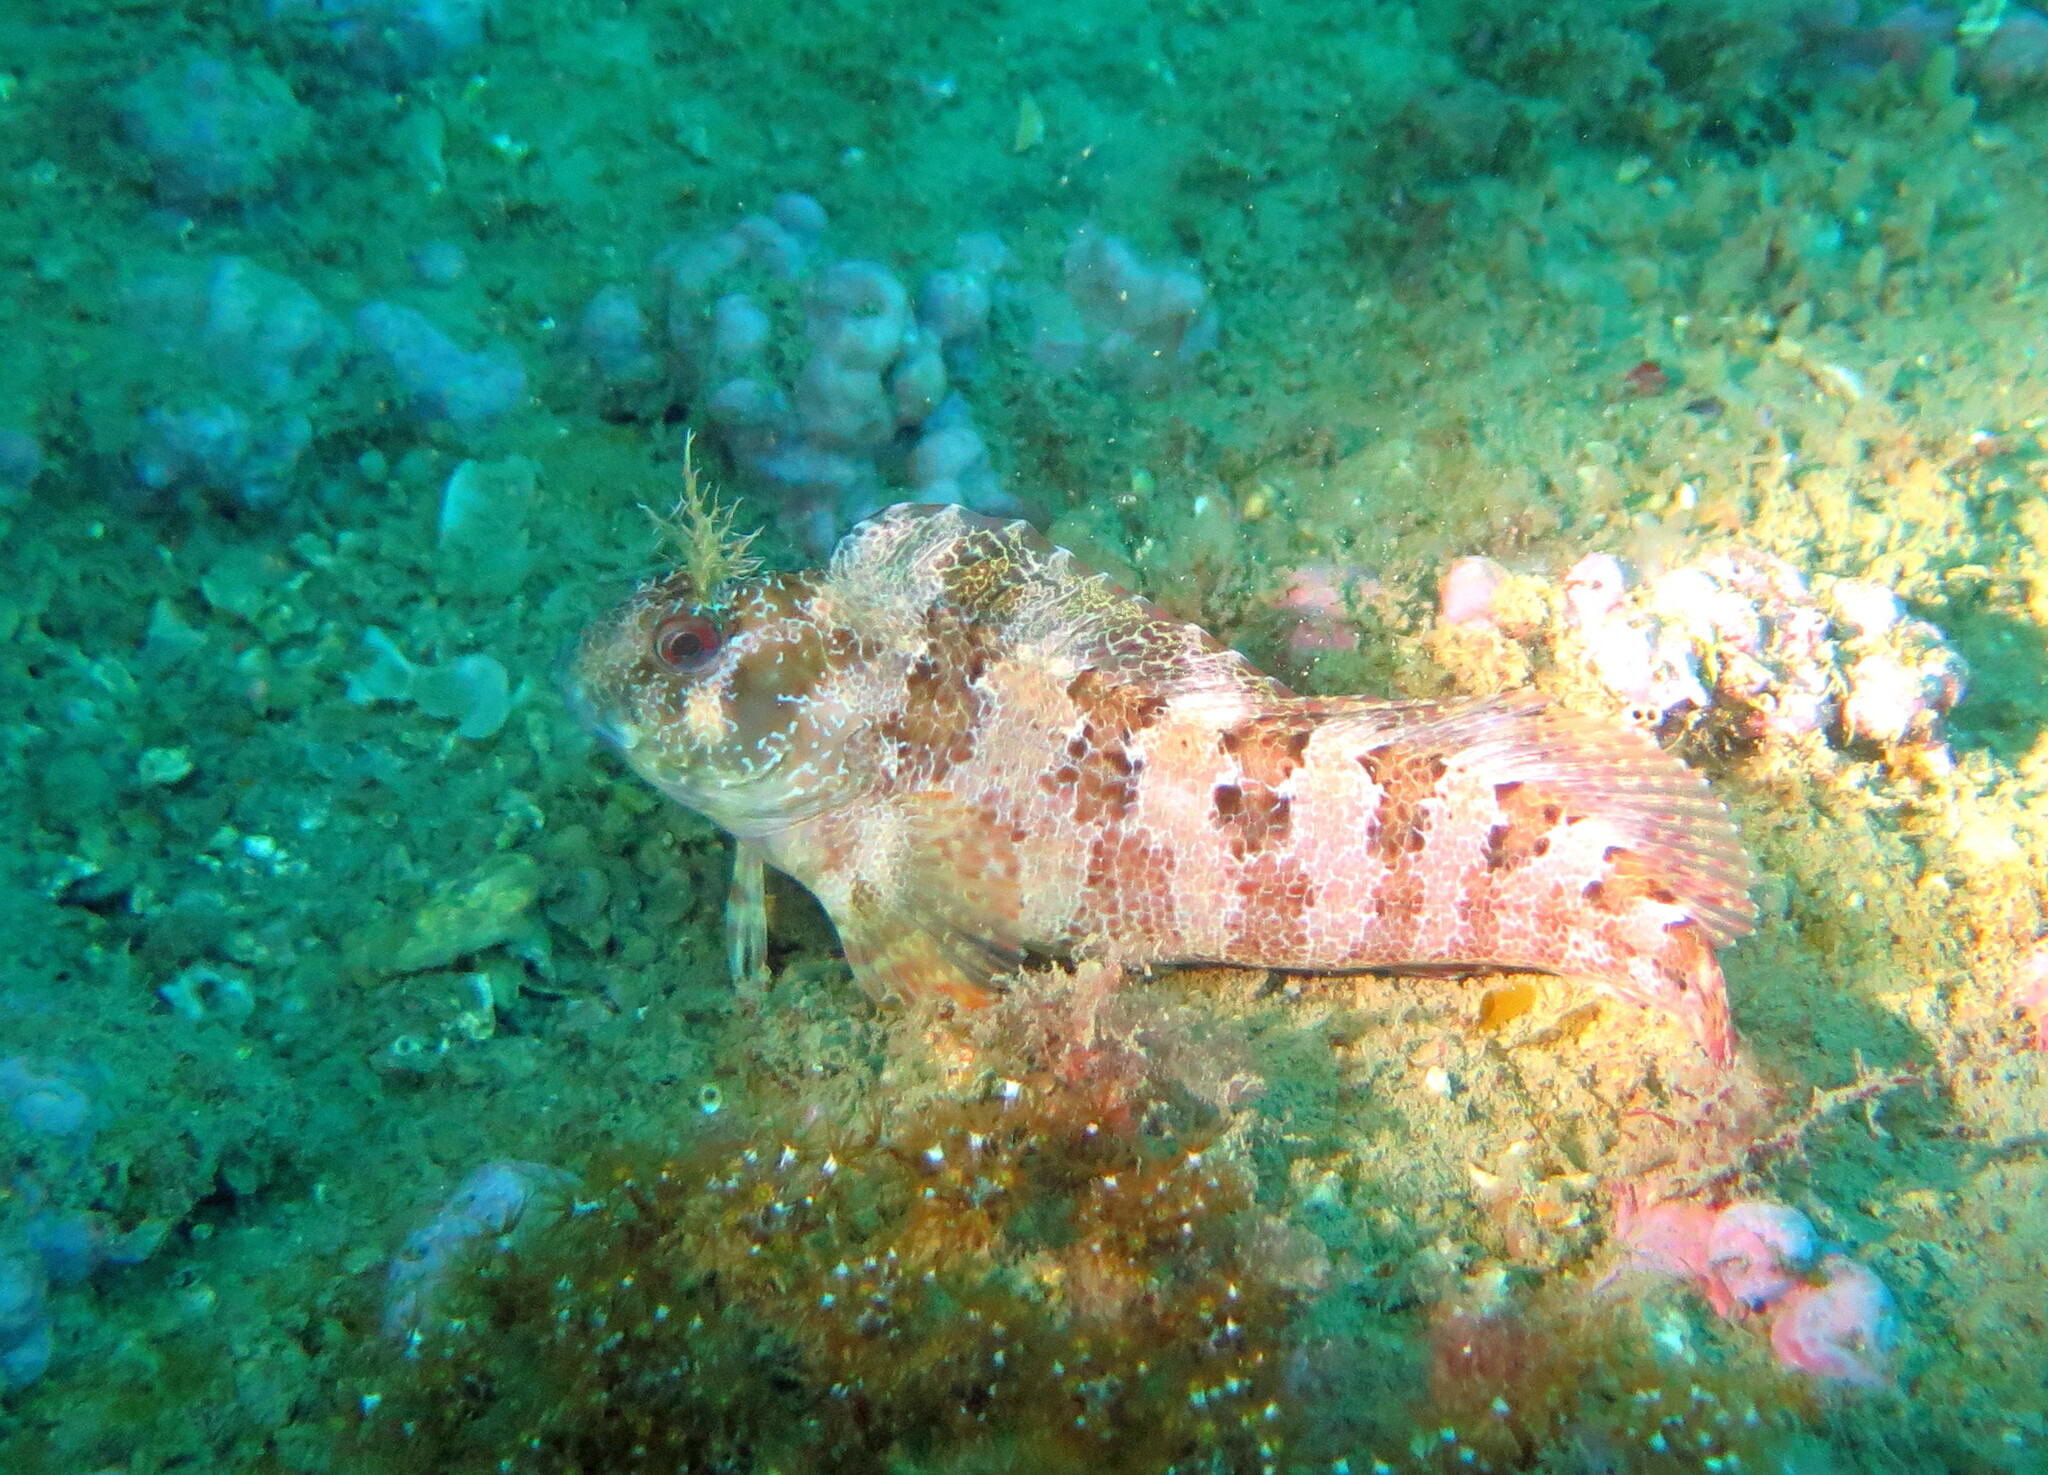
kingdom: Animalia
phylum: Chordata
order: Perciformes
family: Blenniidae
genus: Parablennius
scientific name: Parablennius gattorugine
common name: Tompot blenny
